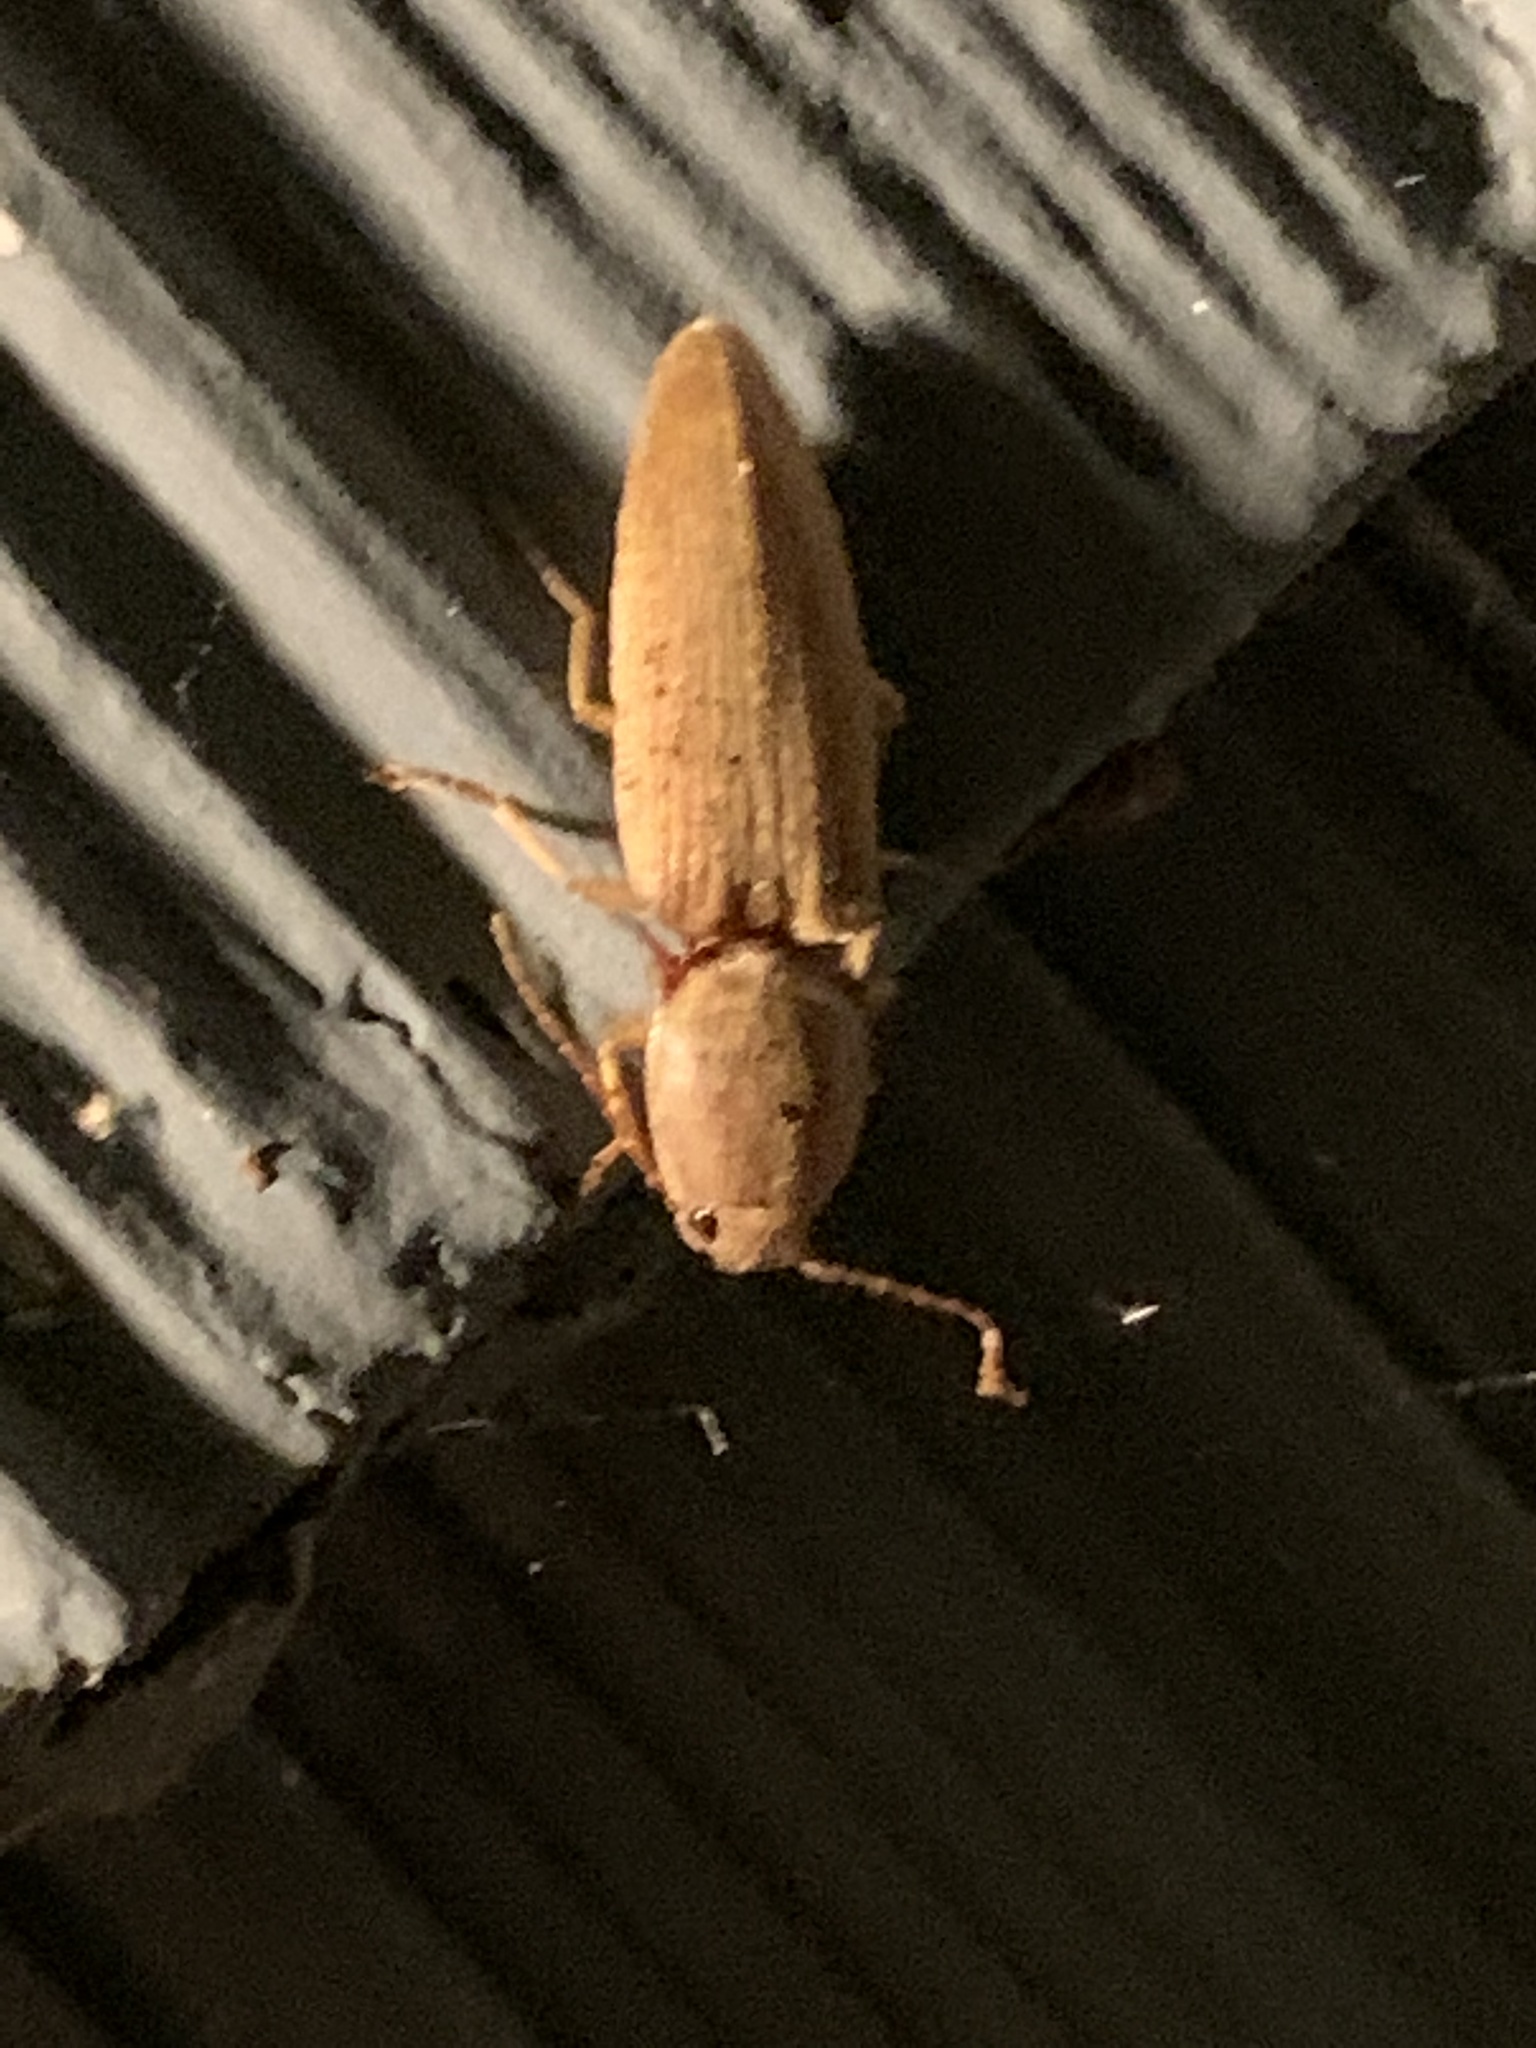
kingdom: Animalia
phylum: Arthropoda
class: Insecta
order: Coleoptera
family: Elateridae
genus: Monocrepidius
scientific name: Monocrepidius lividus
